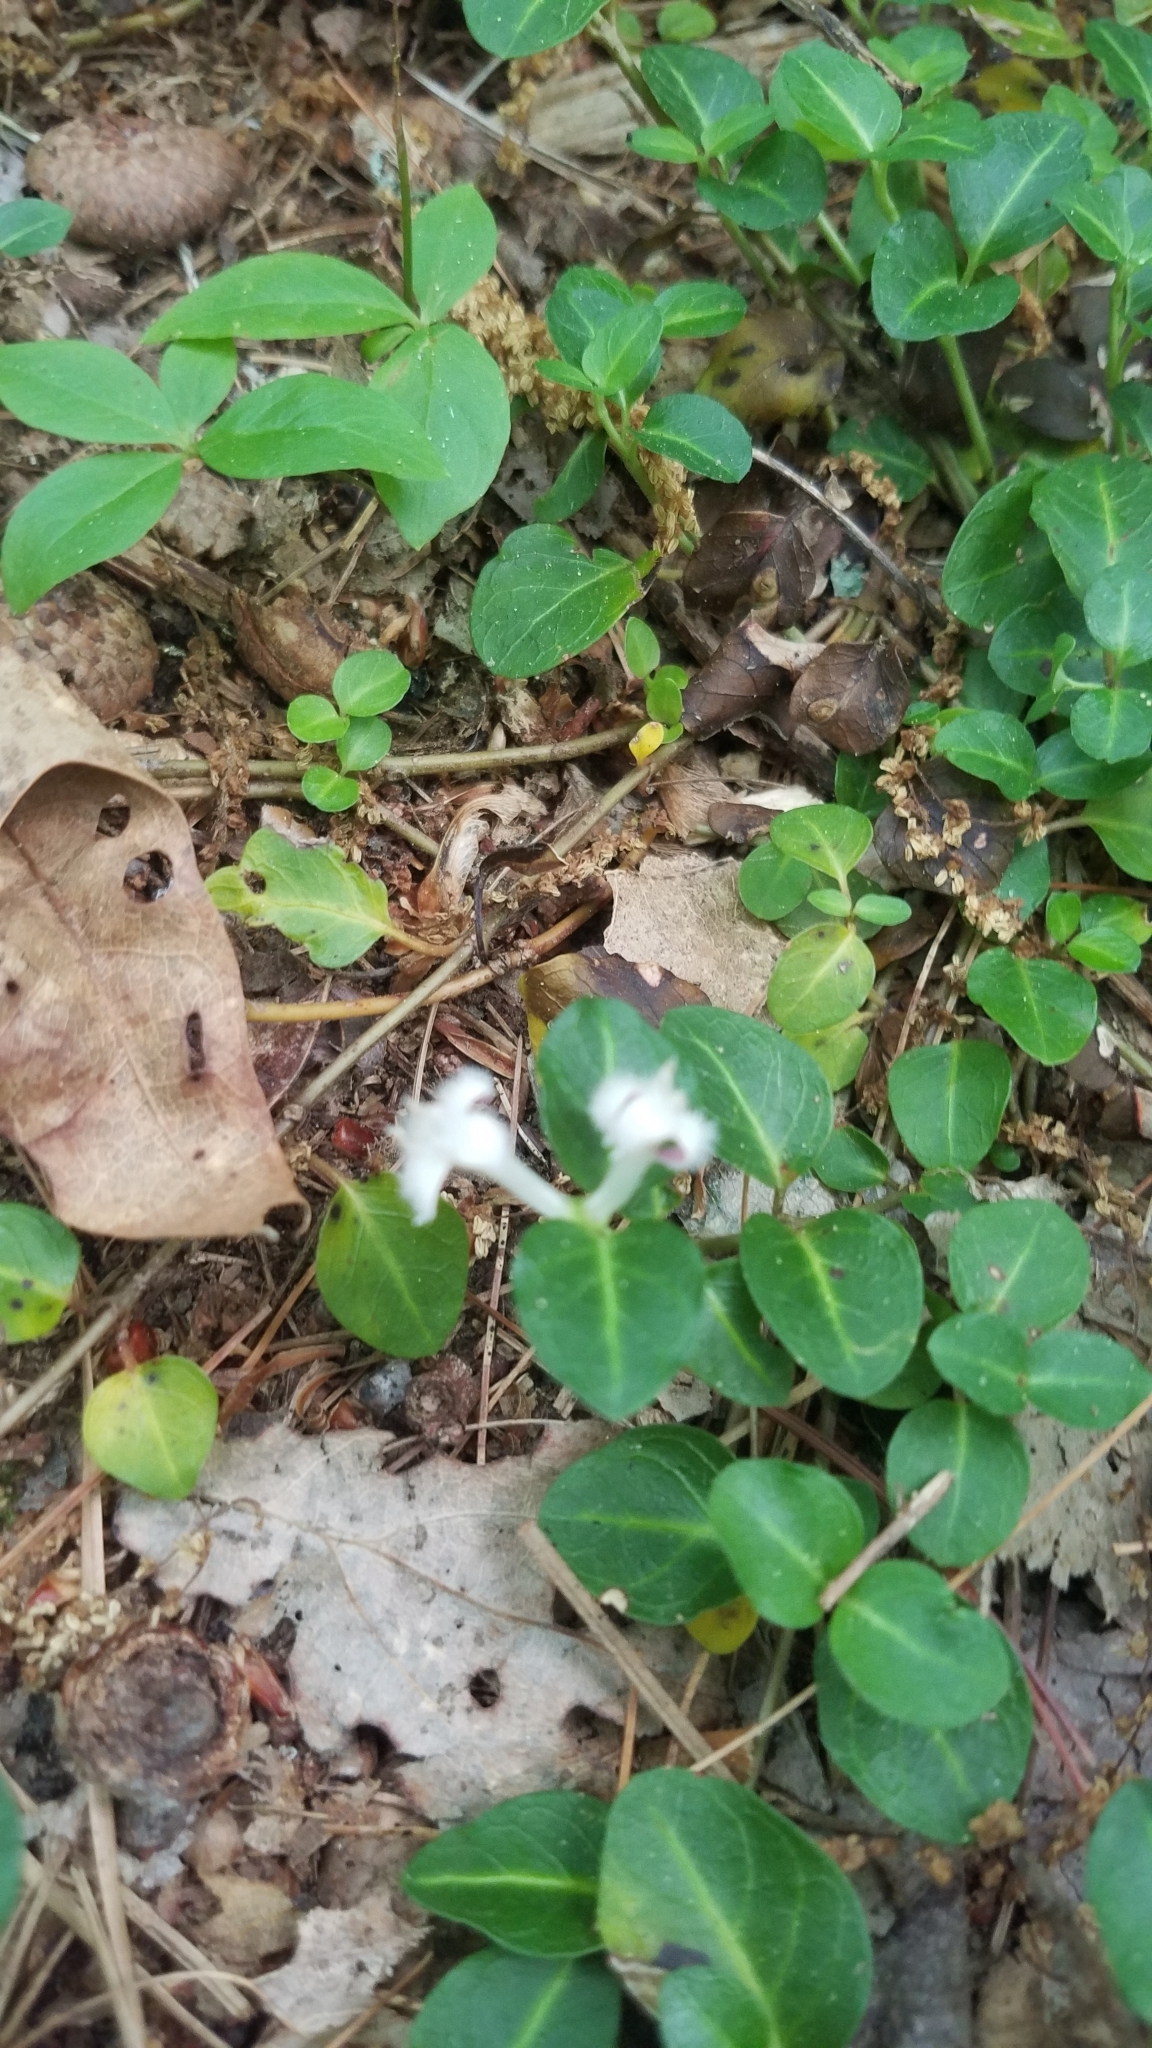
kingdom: Plantae
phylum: Tracheophyta
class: Magnoliopsida
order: Gentianales
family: Rubiaceae
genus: Mitchella
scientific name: Mitchella repens
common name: Partridge-berry
